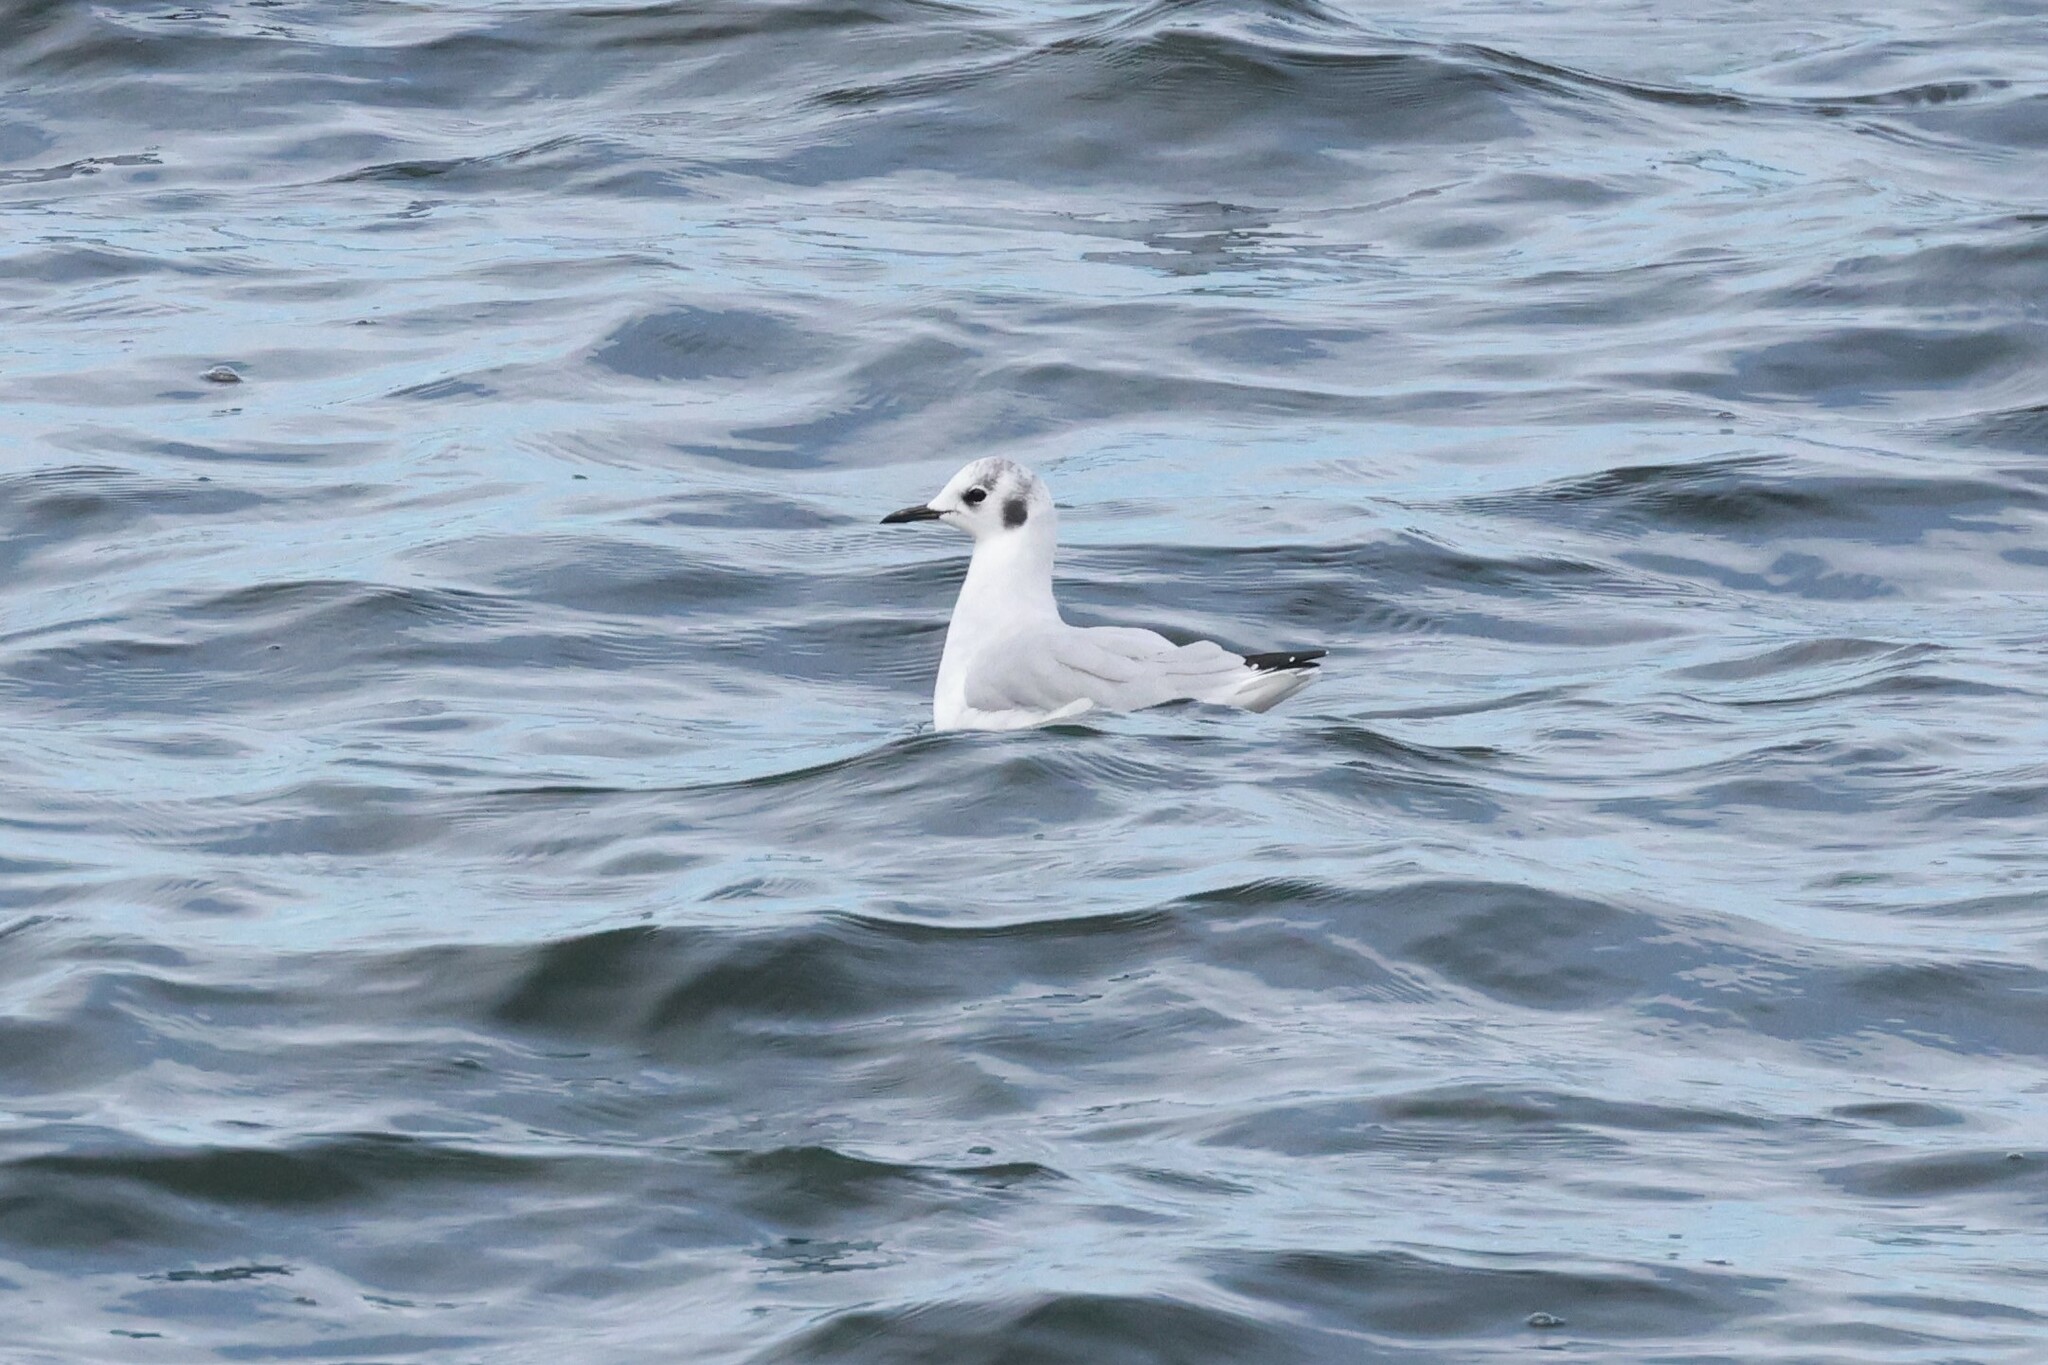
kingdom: Animalia
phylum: Chordata
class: Aves
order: Charadriiformes
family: Laridae
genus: Chroicocephalus
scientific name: Chroicocephalus philadelphia
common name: Bonaparte's gull
